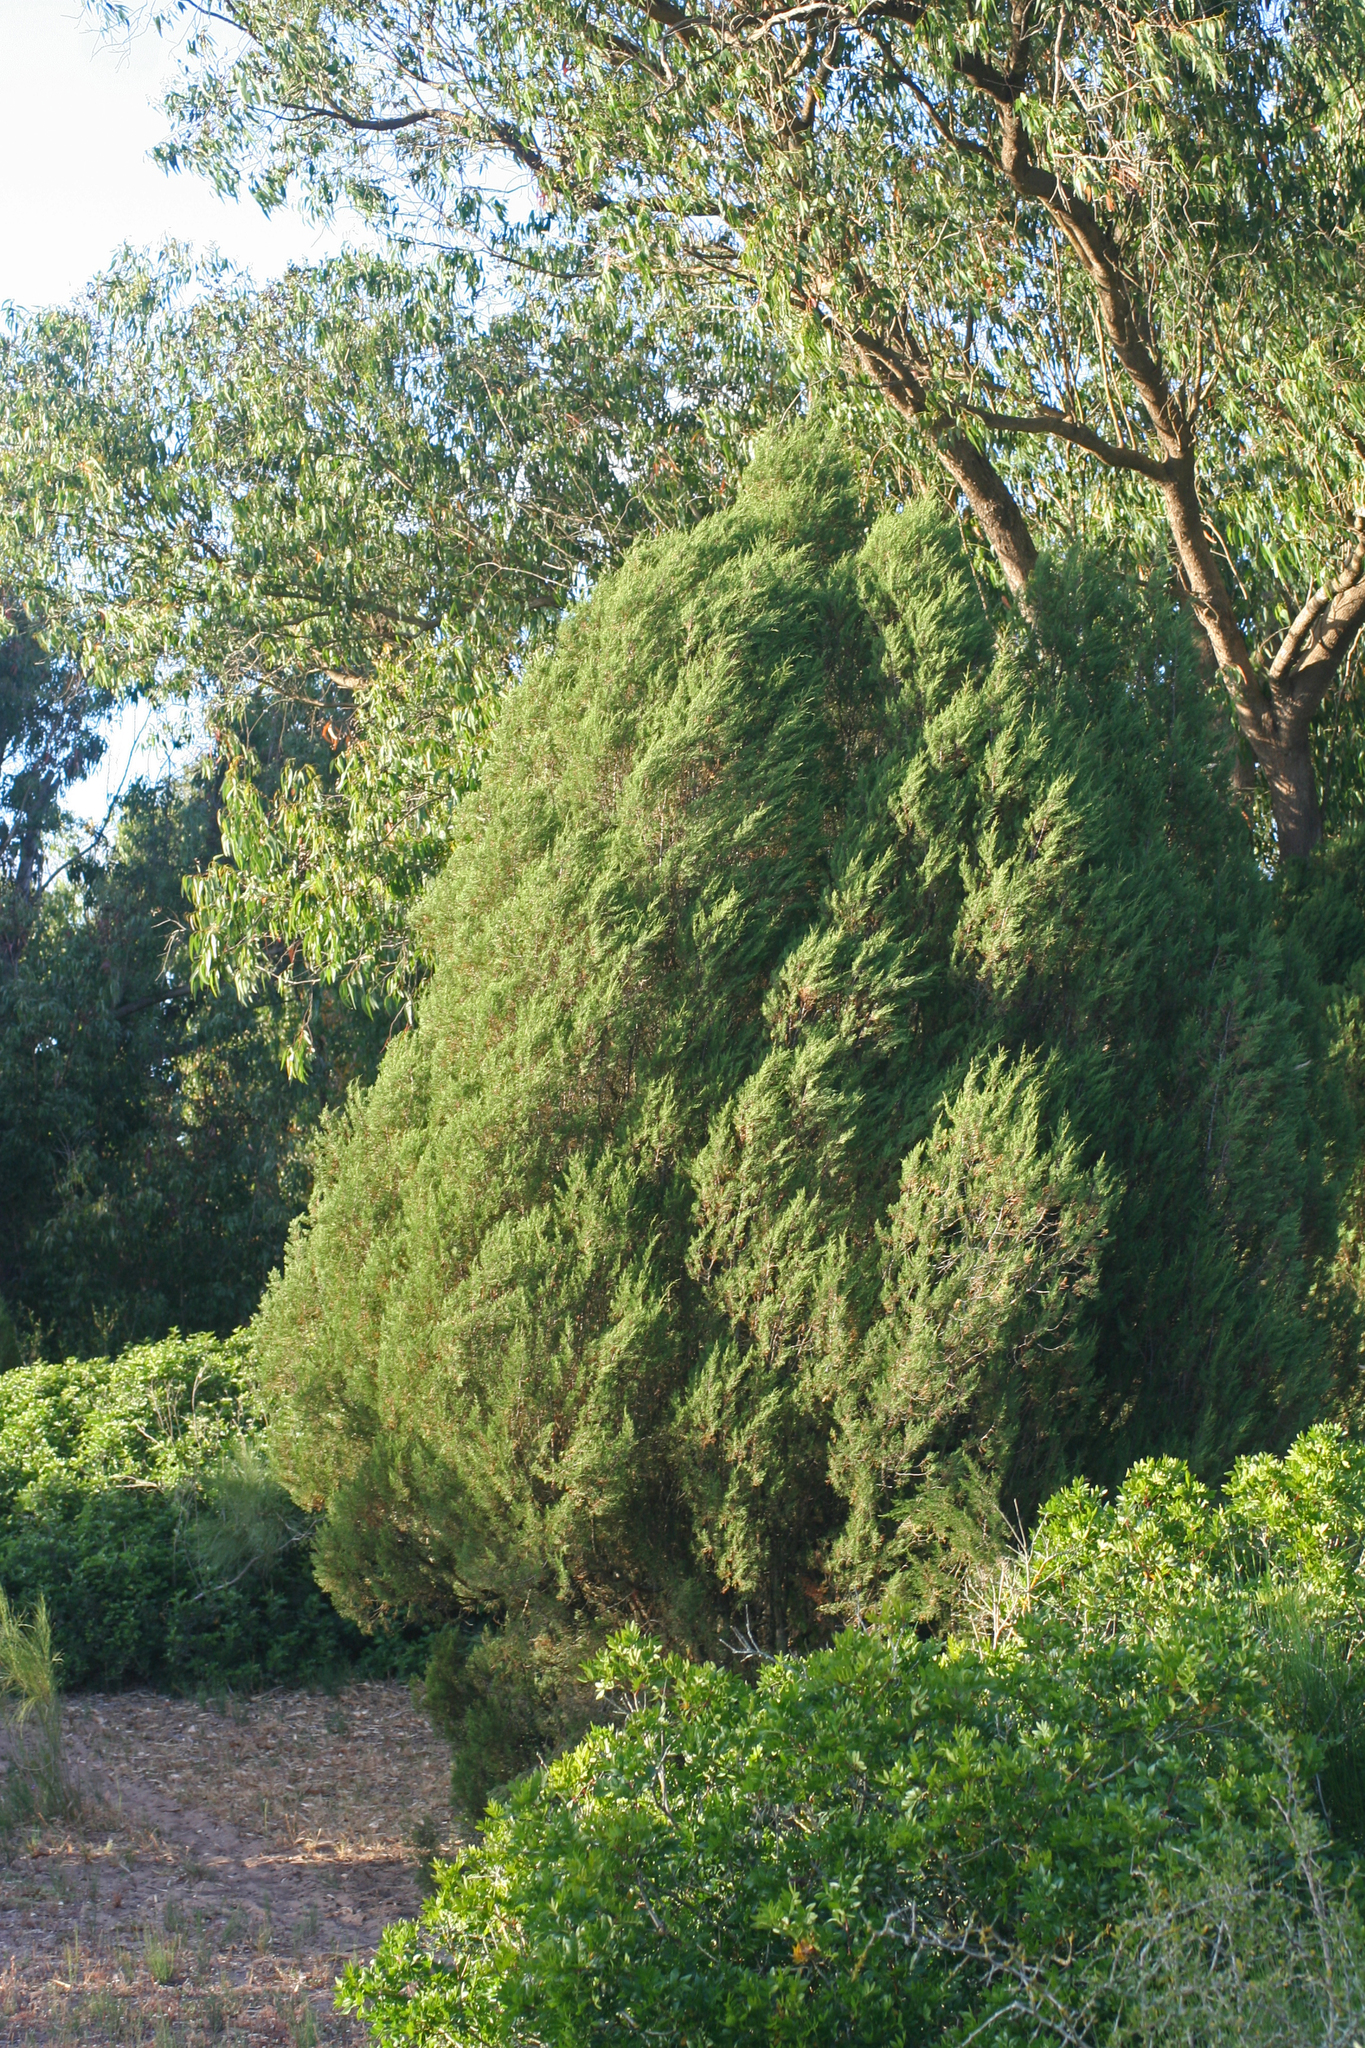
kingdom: Plantae
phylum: Tracheophyta
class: Pinopsida
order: Pinales
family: Cupressaceae
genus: Juniperus
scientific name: Juniperus phoenicea
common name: Phoenician juniper
